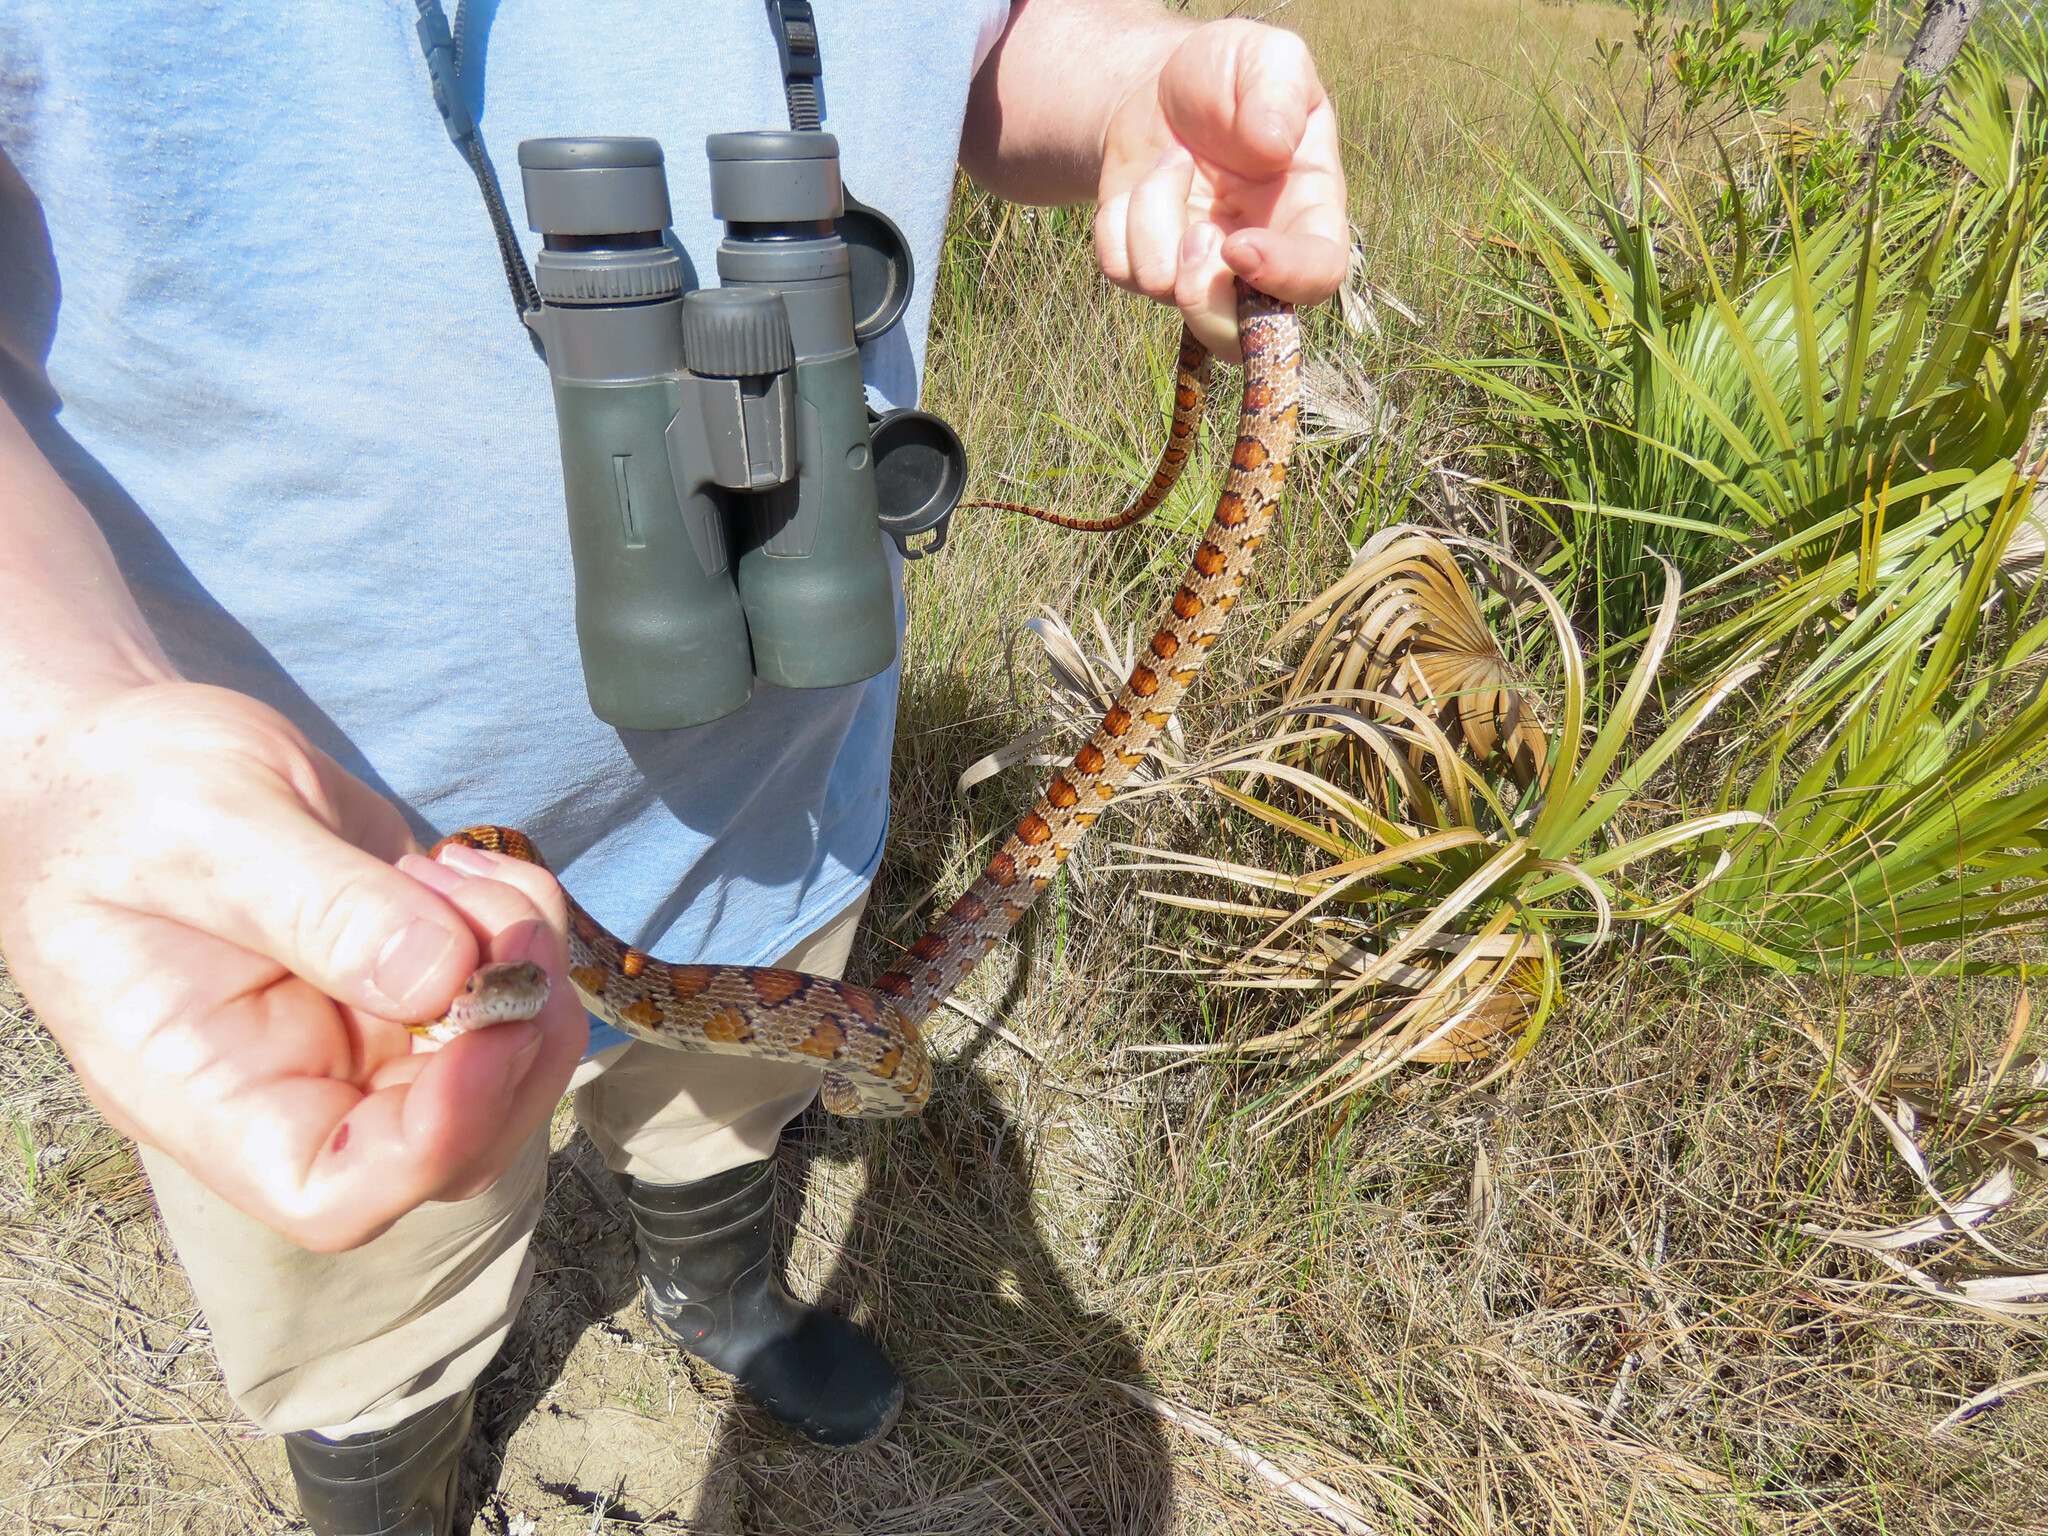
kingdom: Animalia
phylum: Chordata
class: Squamata
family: Colubridae
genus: Pantherophis
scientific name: Pantherophis guttatus
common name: Red cornsnake
